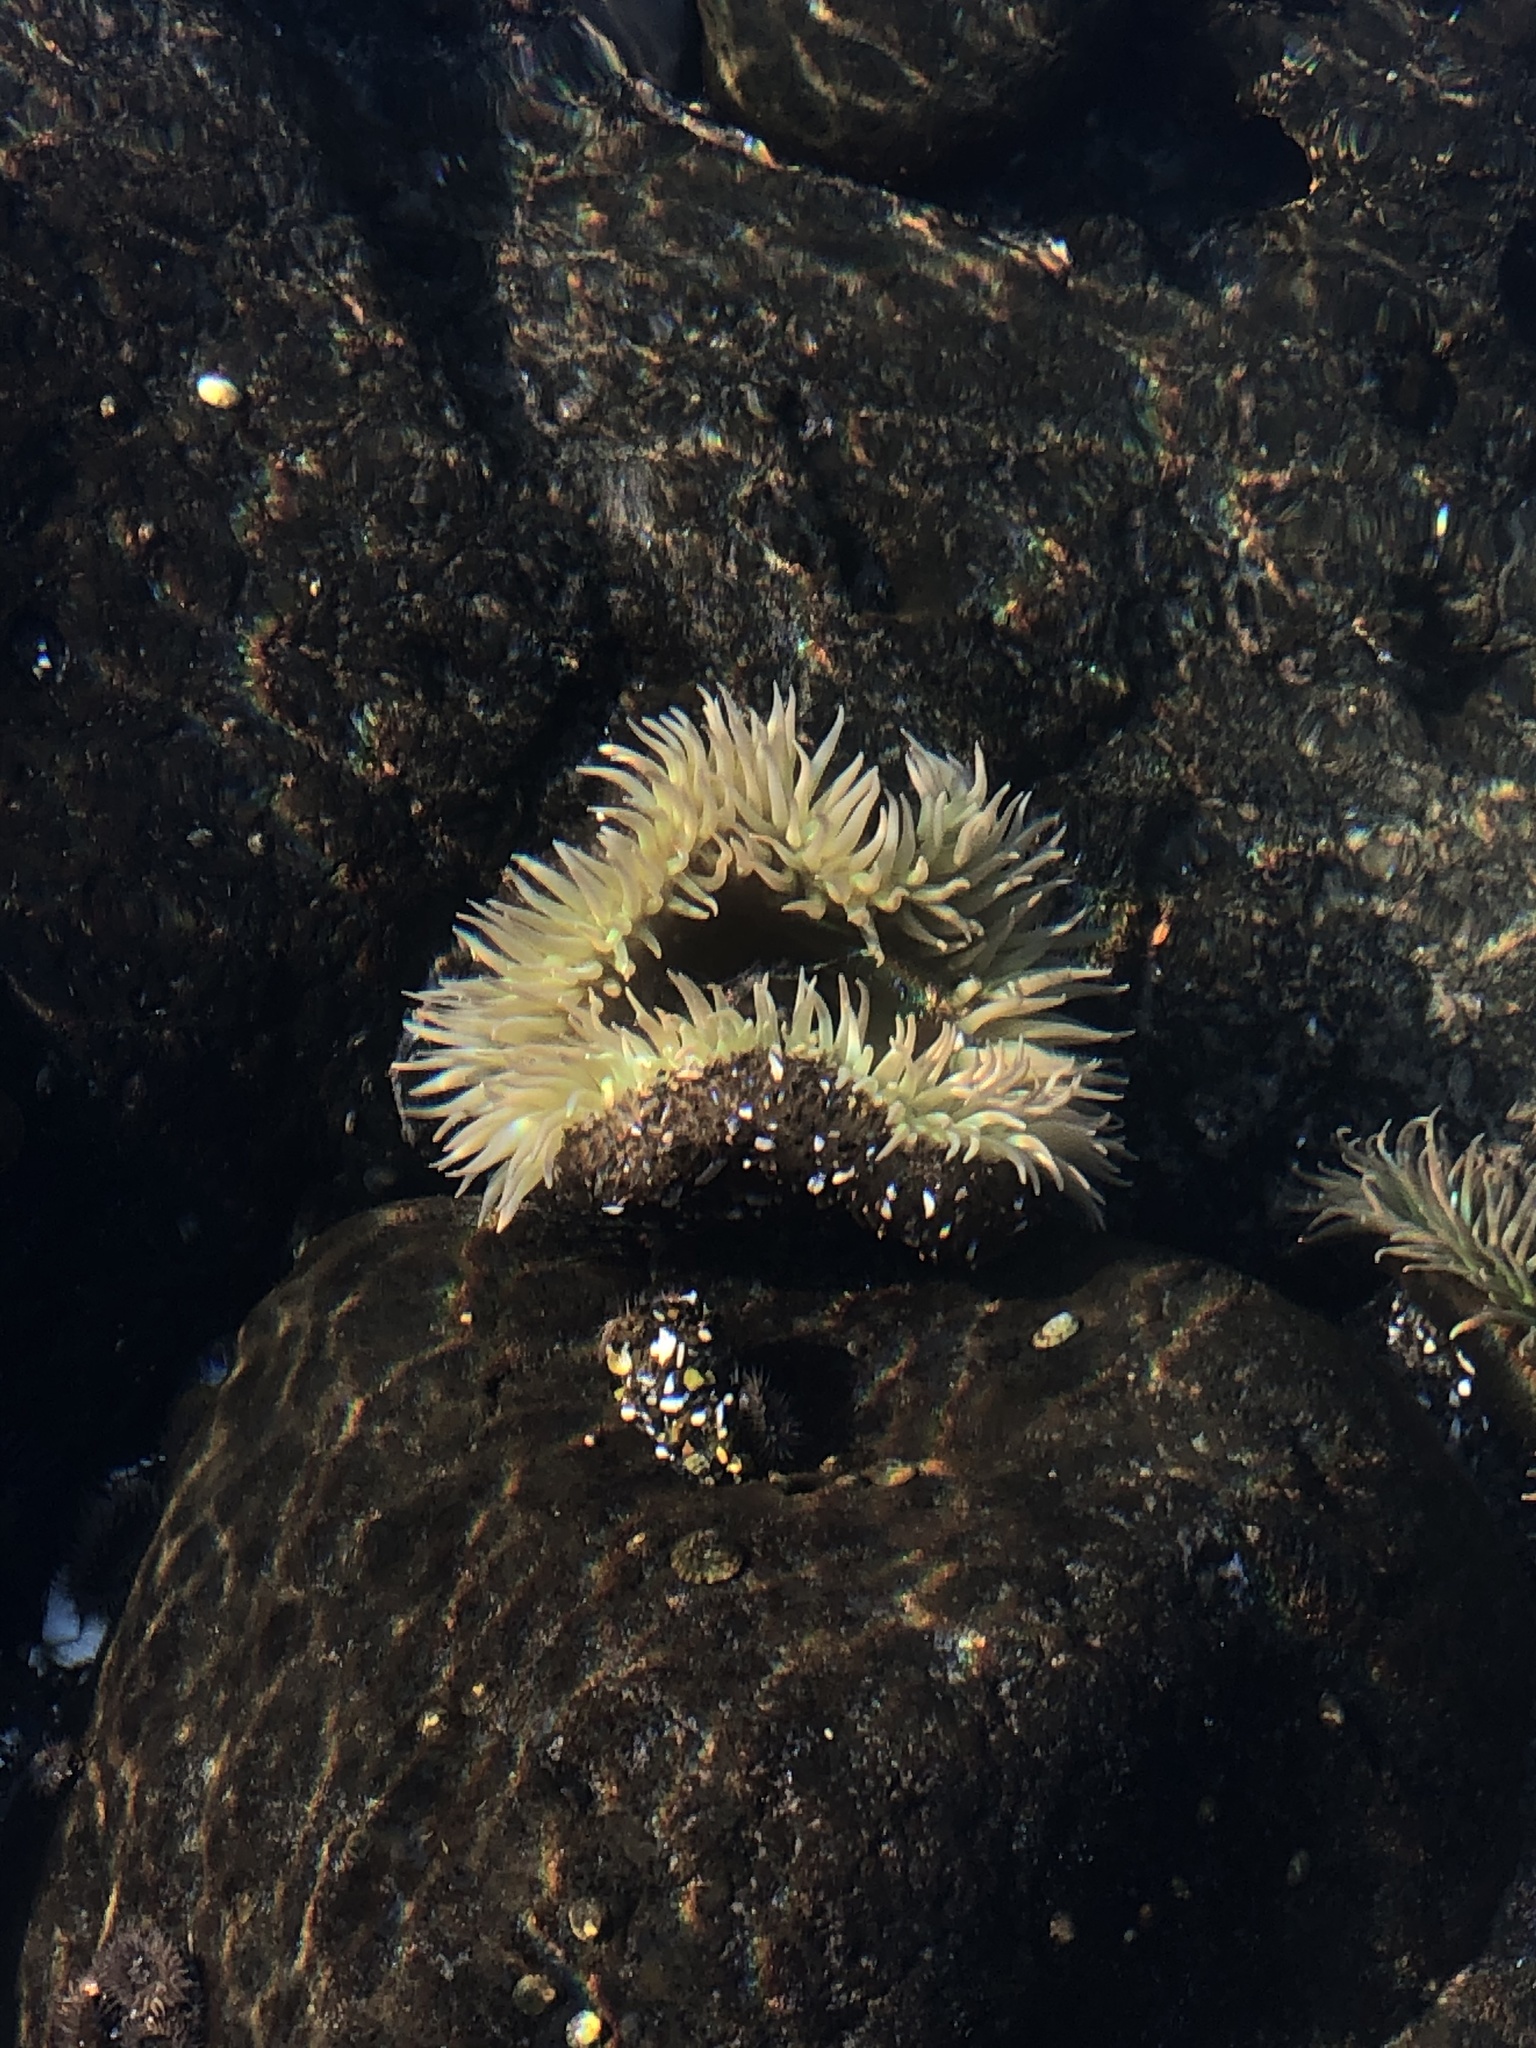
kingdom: Animalia
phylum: Cnidaria
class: Anthozoa
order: Actiniaria
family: Actiniidae
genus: Anthopleura
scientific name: Anthopleura xanthogrammica
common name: Giant green anemone
